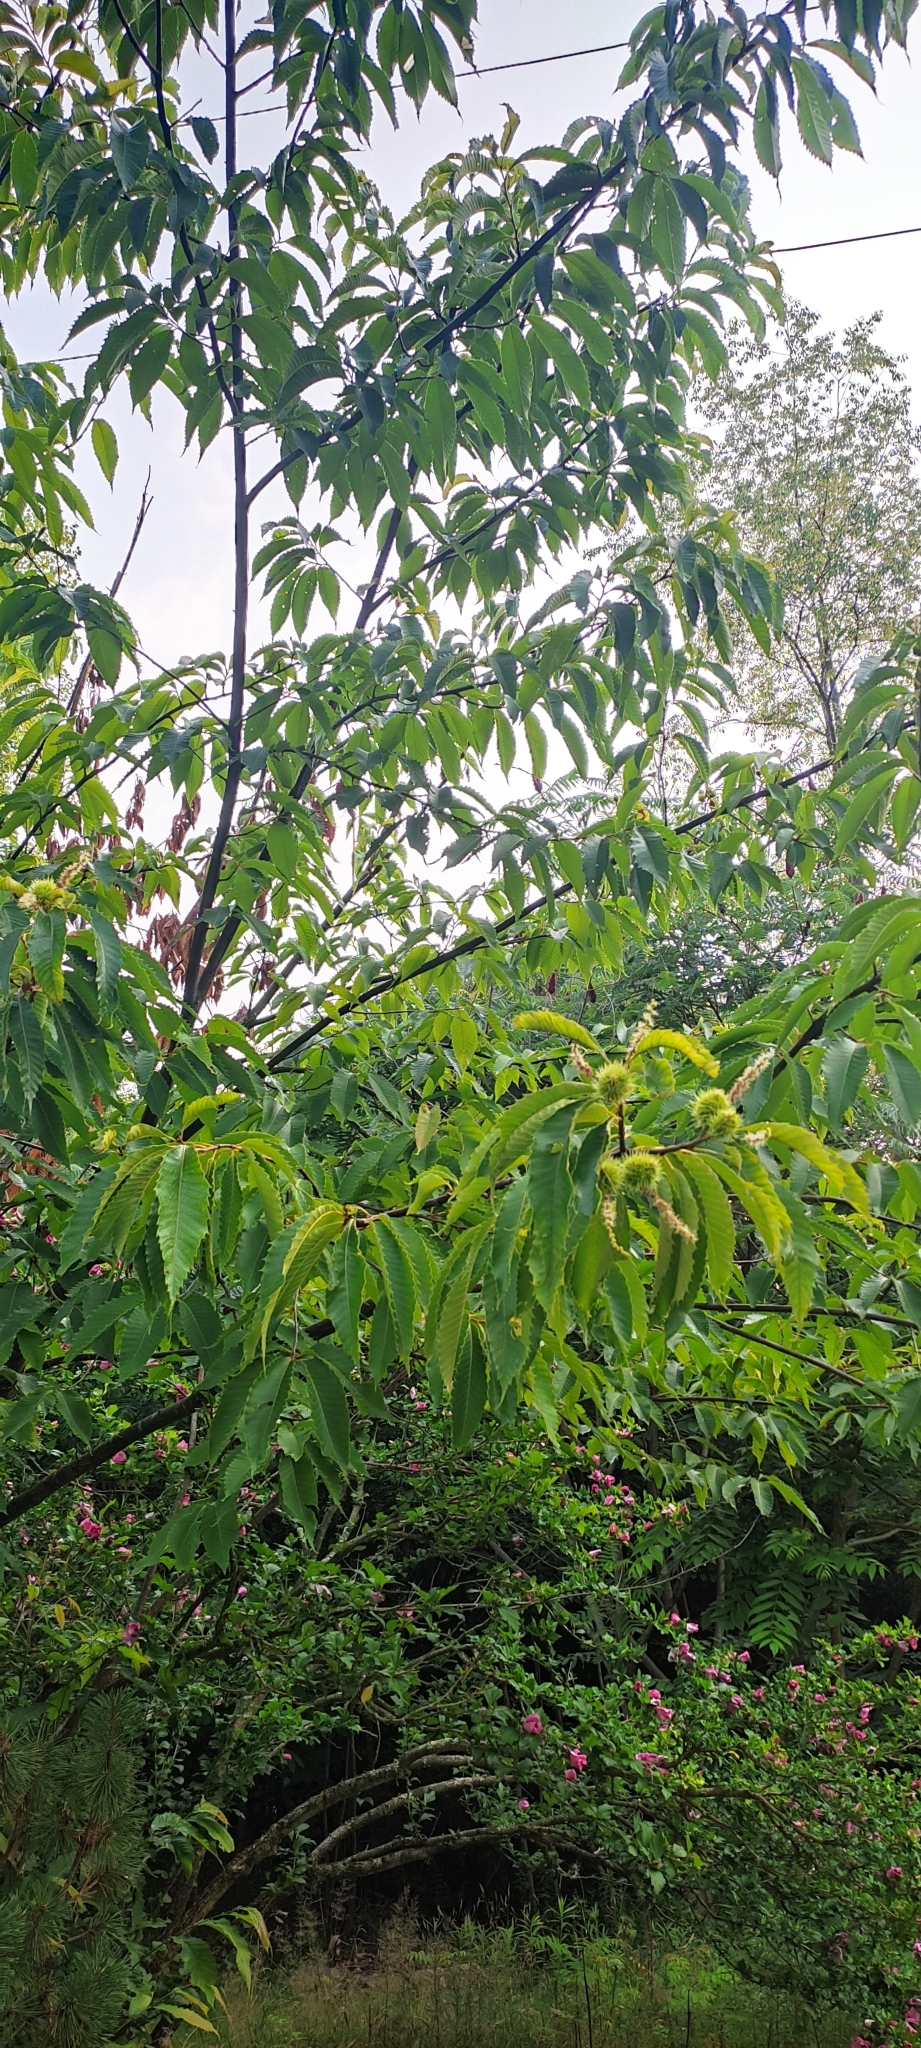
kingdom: Plantae
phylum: Tracheophyta
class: Magnoliopsida
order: Fagales
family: Fagaceae
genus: Castanea
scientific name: Castanea dentata
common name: American chestnut
